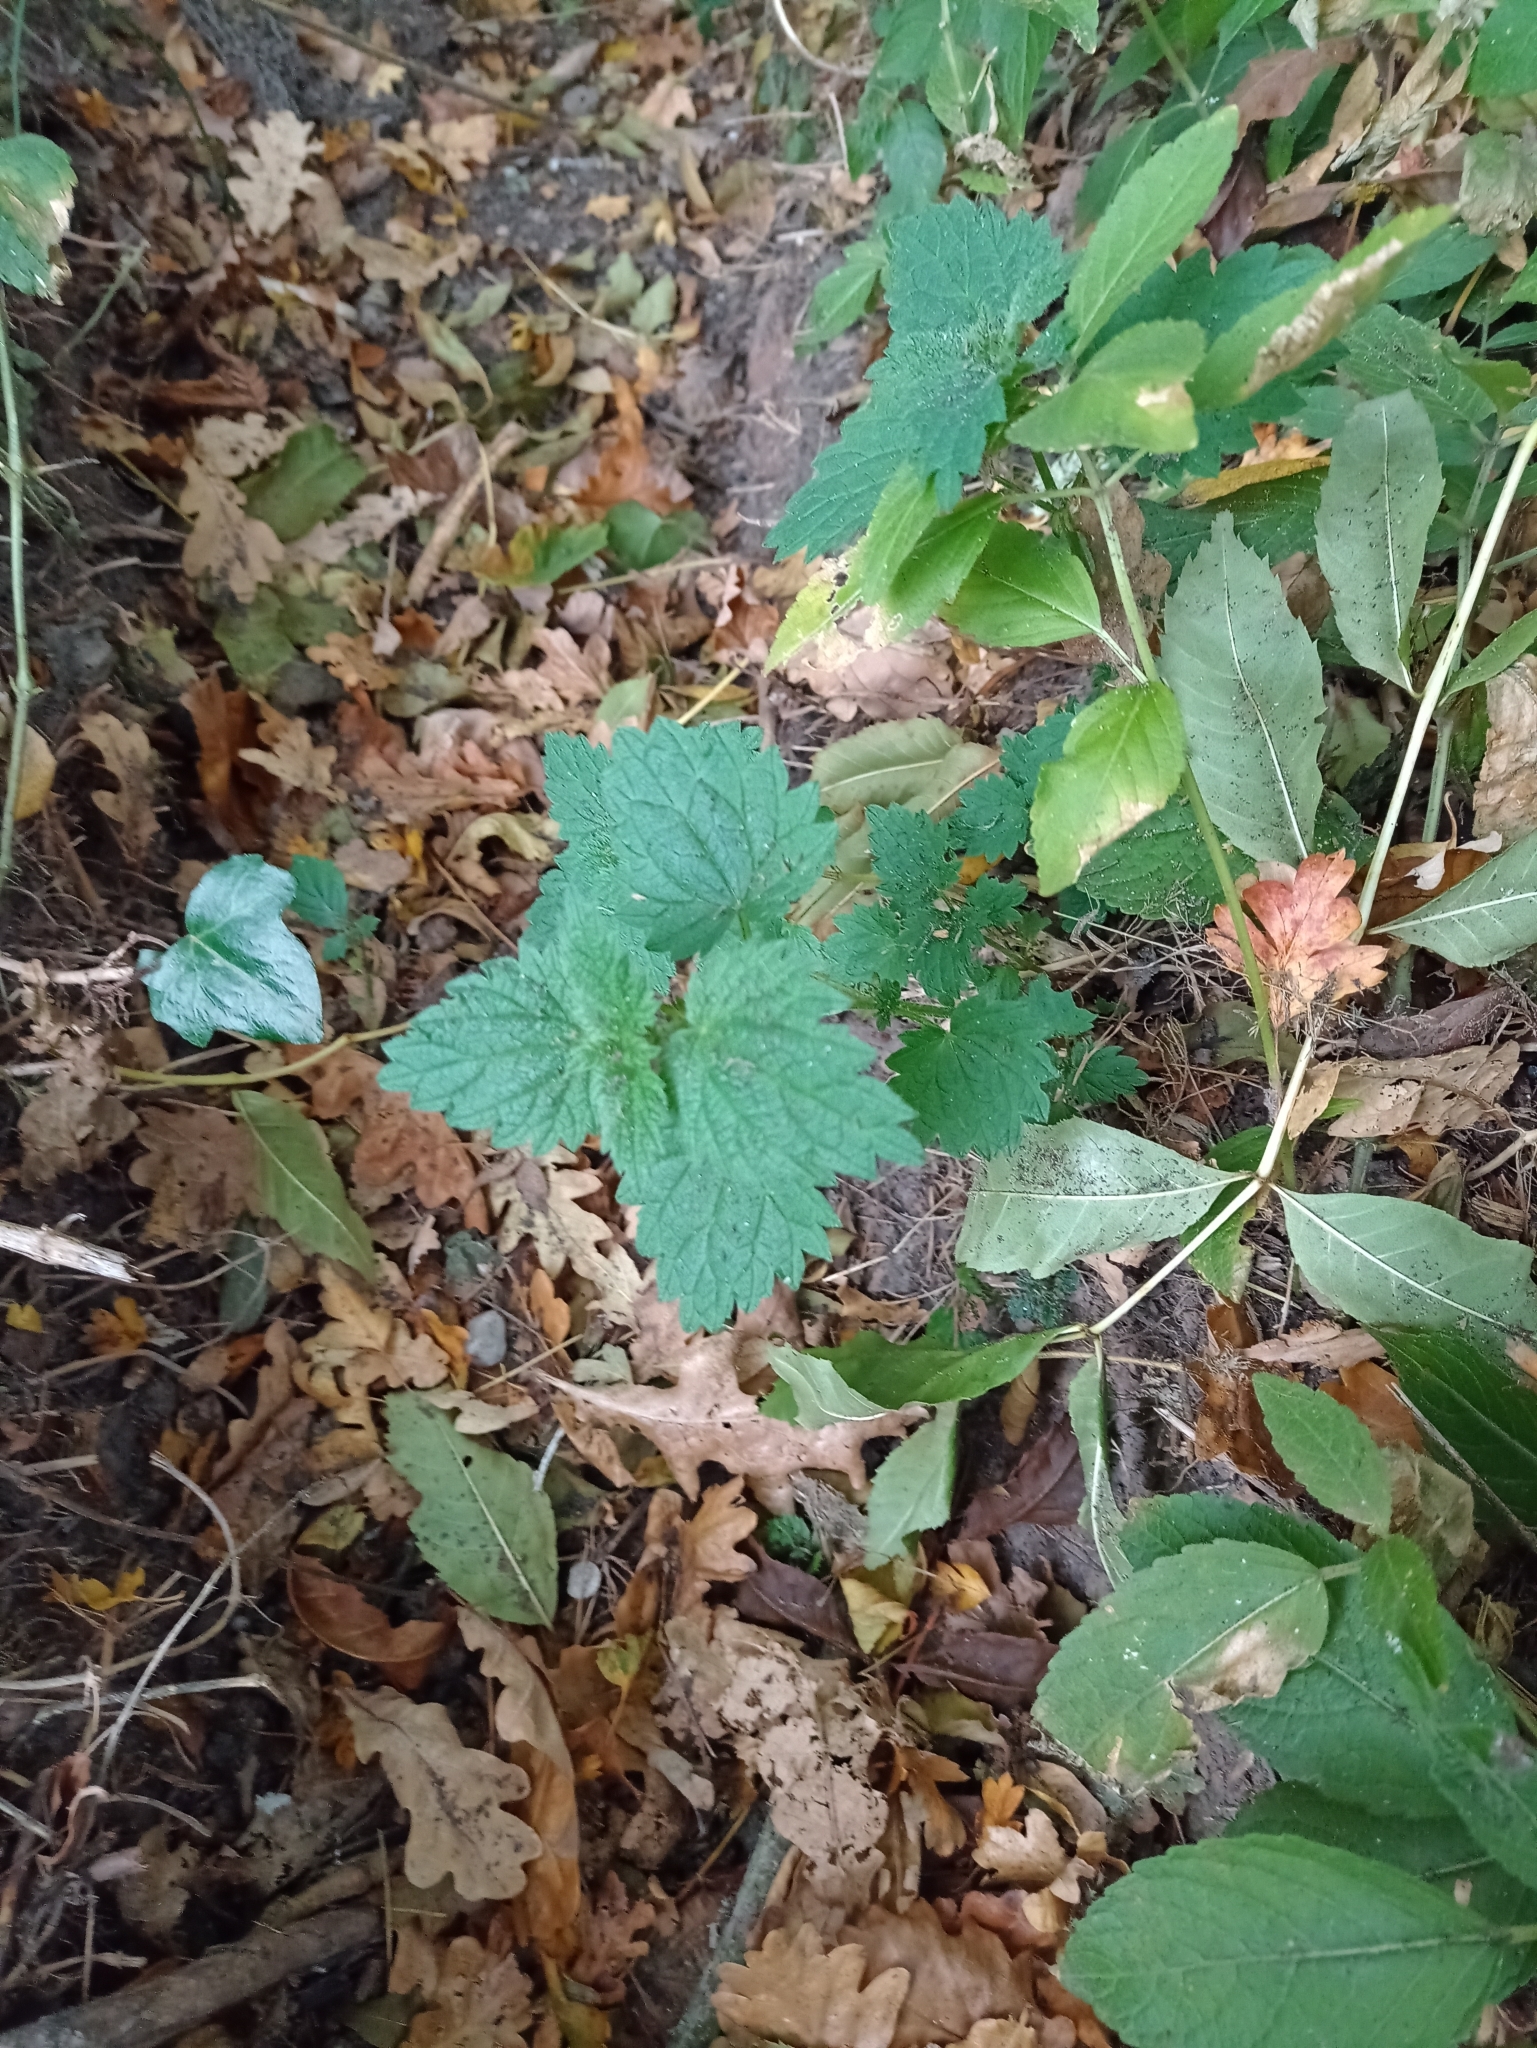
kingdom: Plantae
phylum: Tracheophyta
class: Magnoliopsida
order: Rosales
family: Urticaceae
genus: Urtica
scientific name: Urtica dioica
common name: Common nettle
